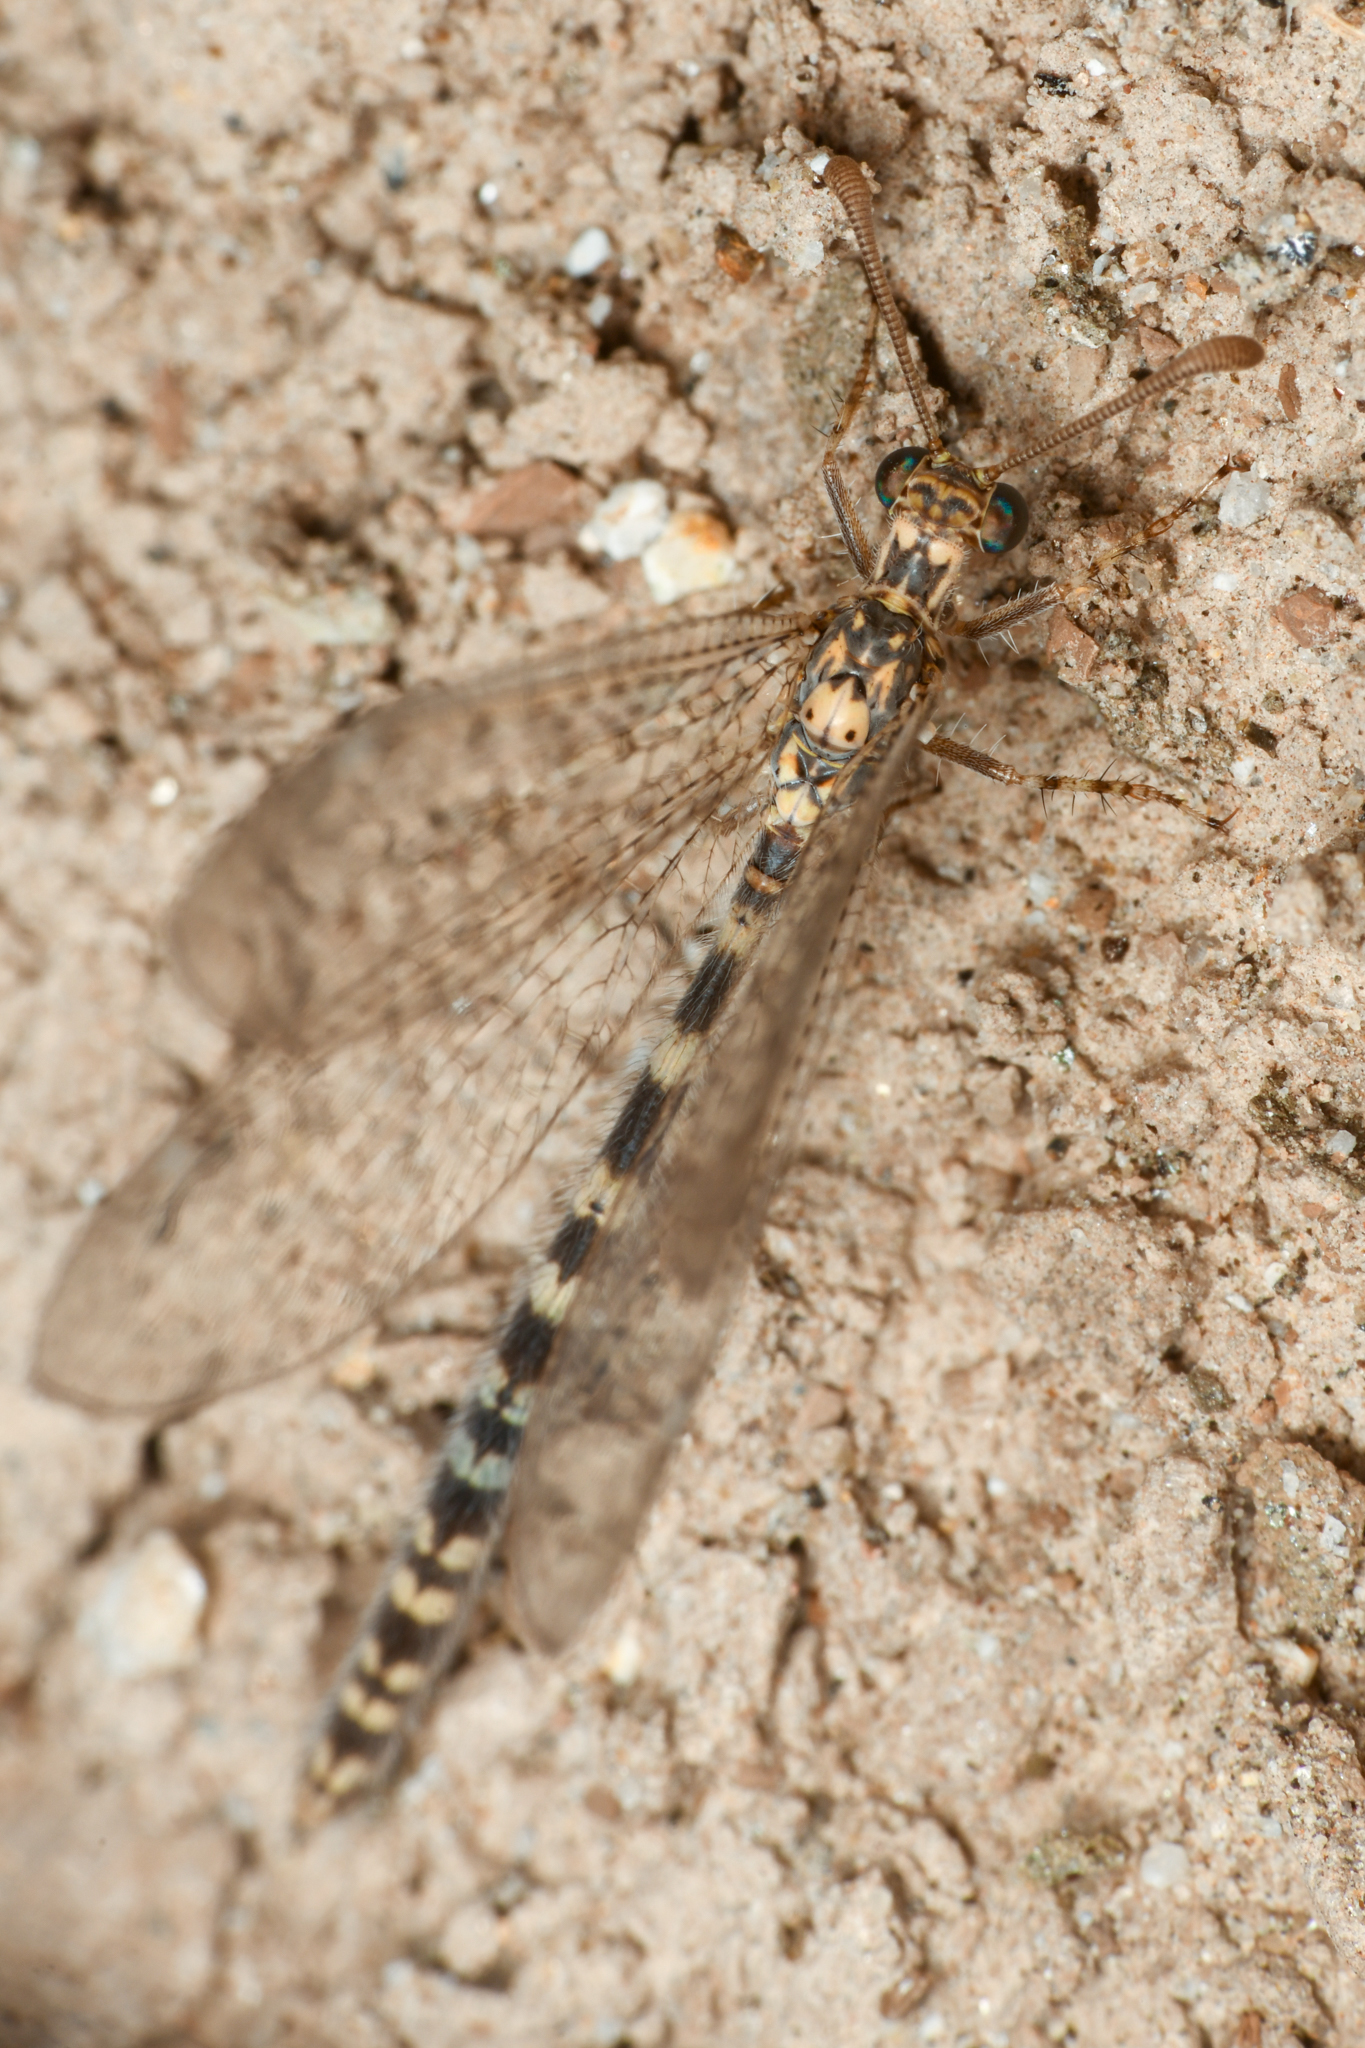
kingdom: Animalia
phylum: Arthropoda
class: Insecta
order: Neuroptera
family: Myrmeleontidae
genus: Brachynemurus
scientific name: Brachynemurus sackeni
